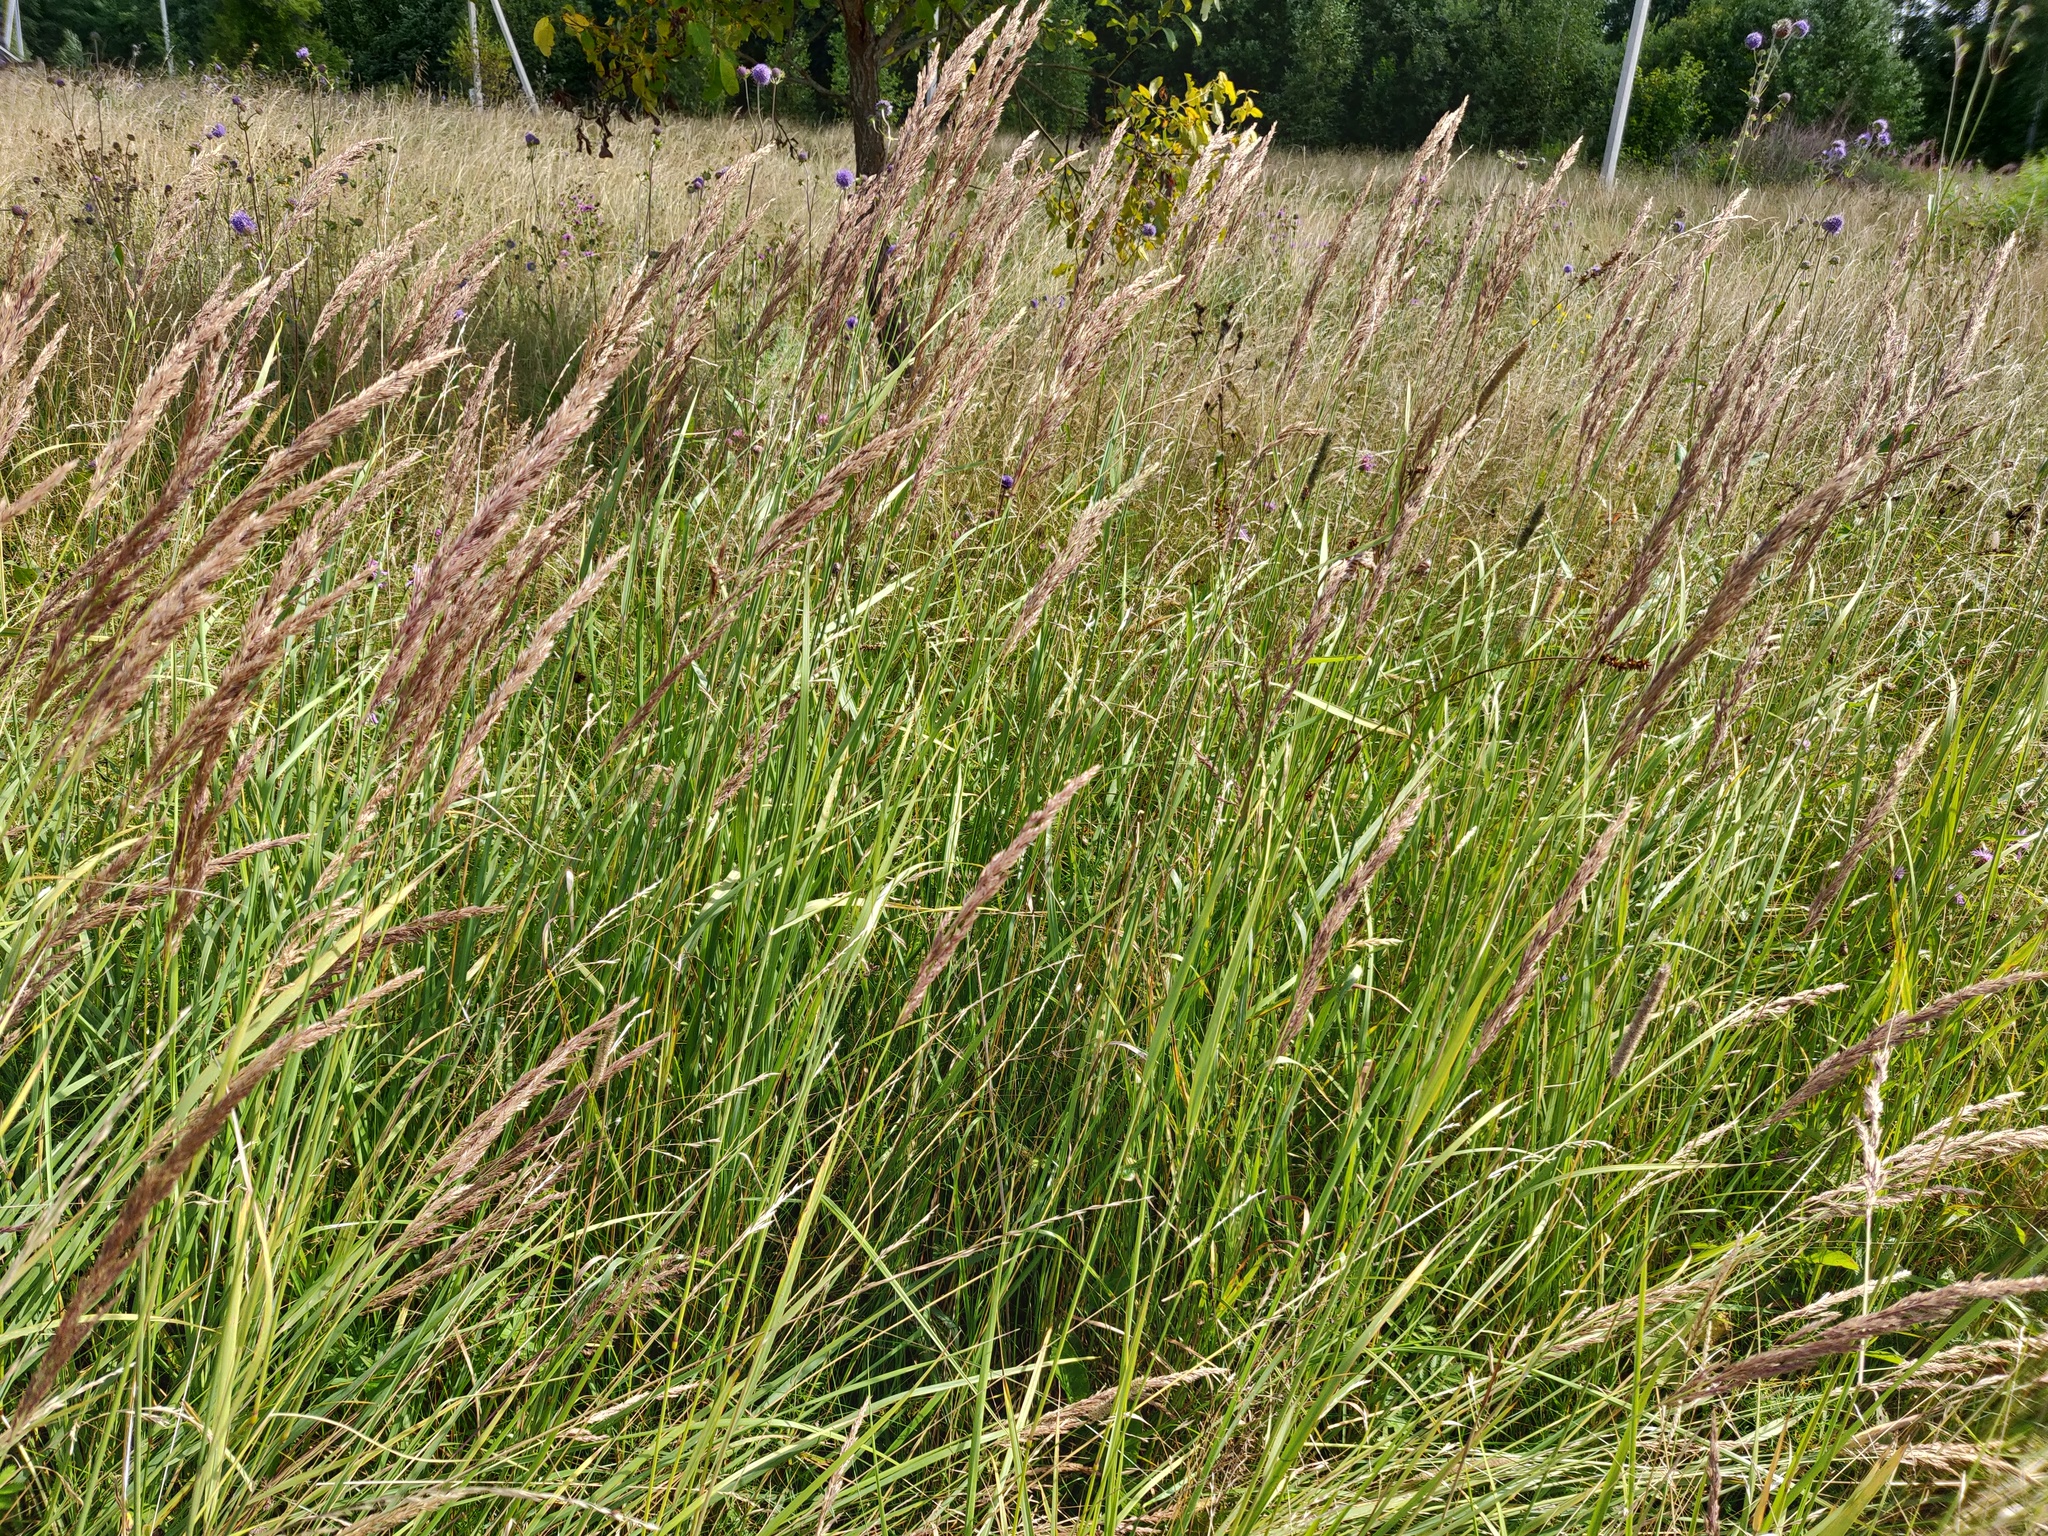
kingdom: Plantae
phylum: Tracheophyta
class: Liliopsida
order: Poales
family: Poaceae
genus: Calamagrostis
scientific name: Calamagrostis epigejos
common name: Wood small-reed
